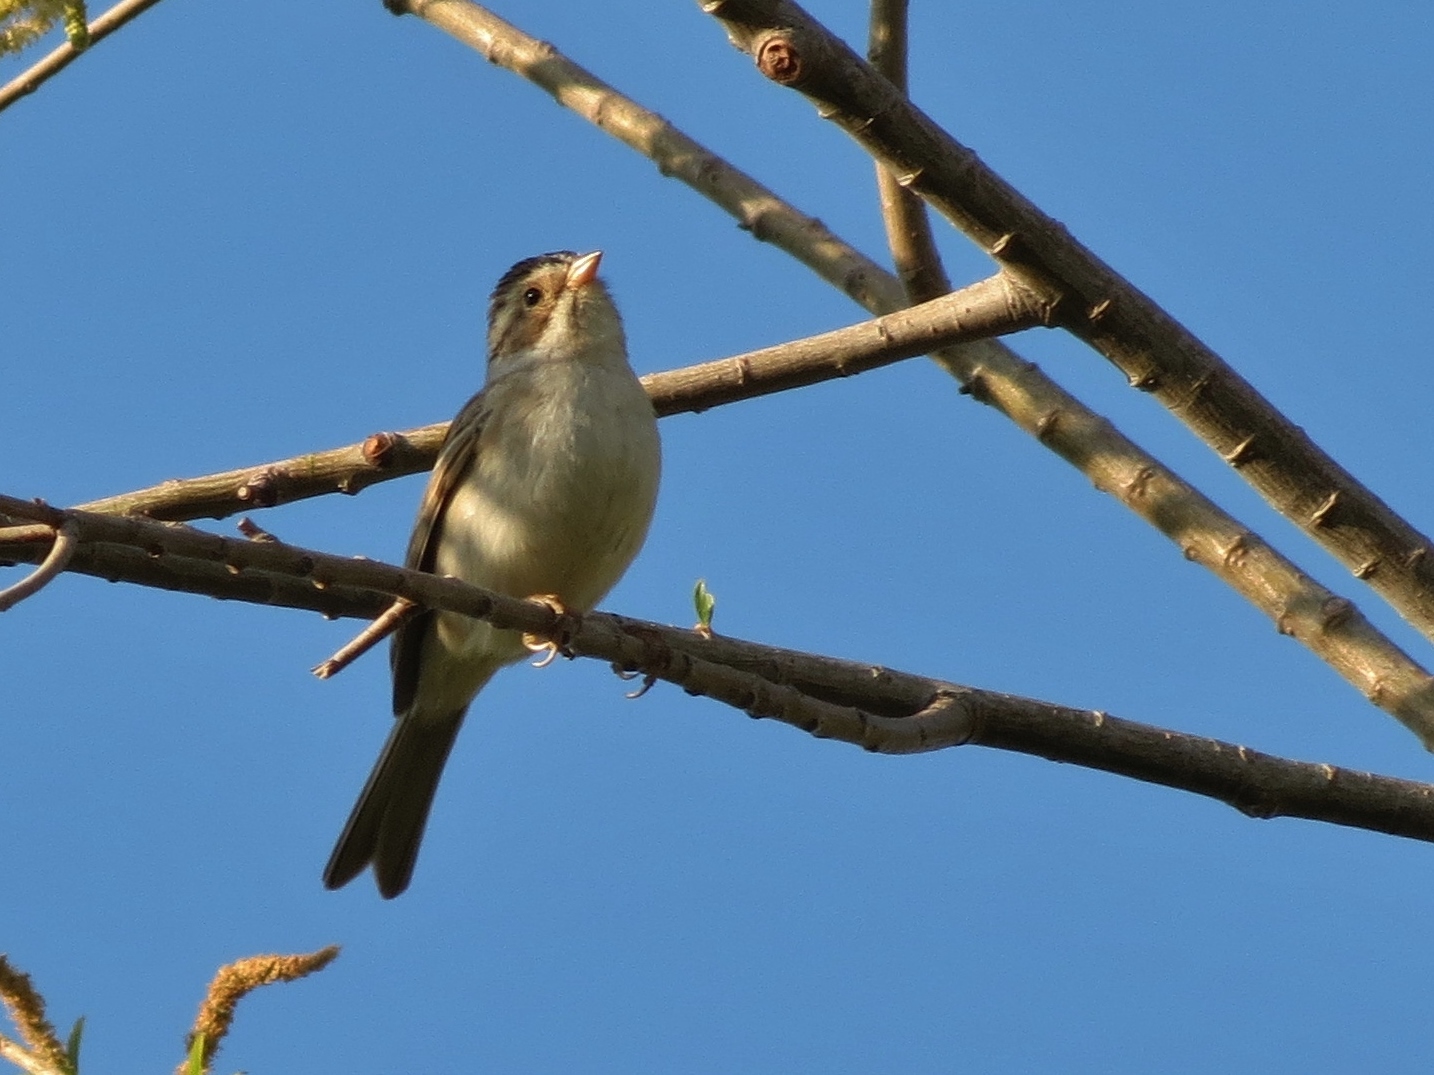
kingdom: Animalia
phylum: Chordata
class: Aves
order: Passeriformes
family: Passerellidae
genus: Spizella
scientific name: Spizella pallida
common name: Clay-colored sparrow
